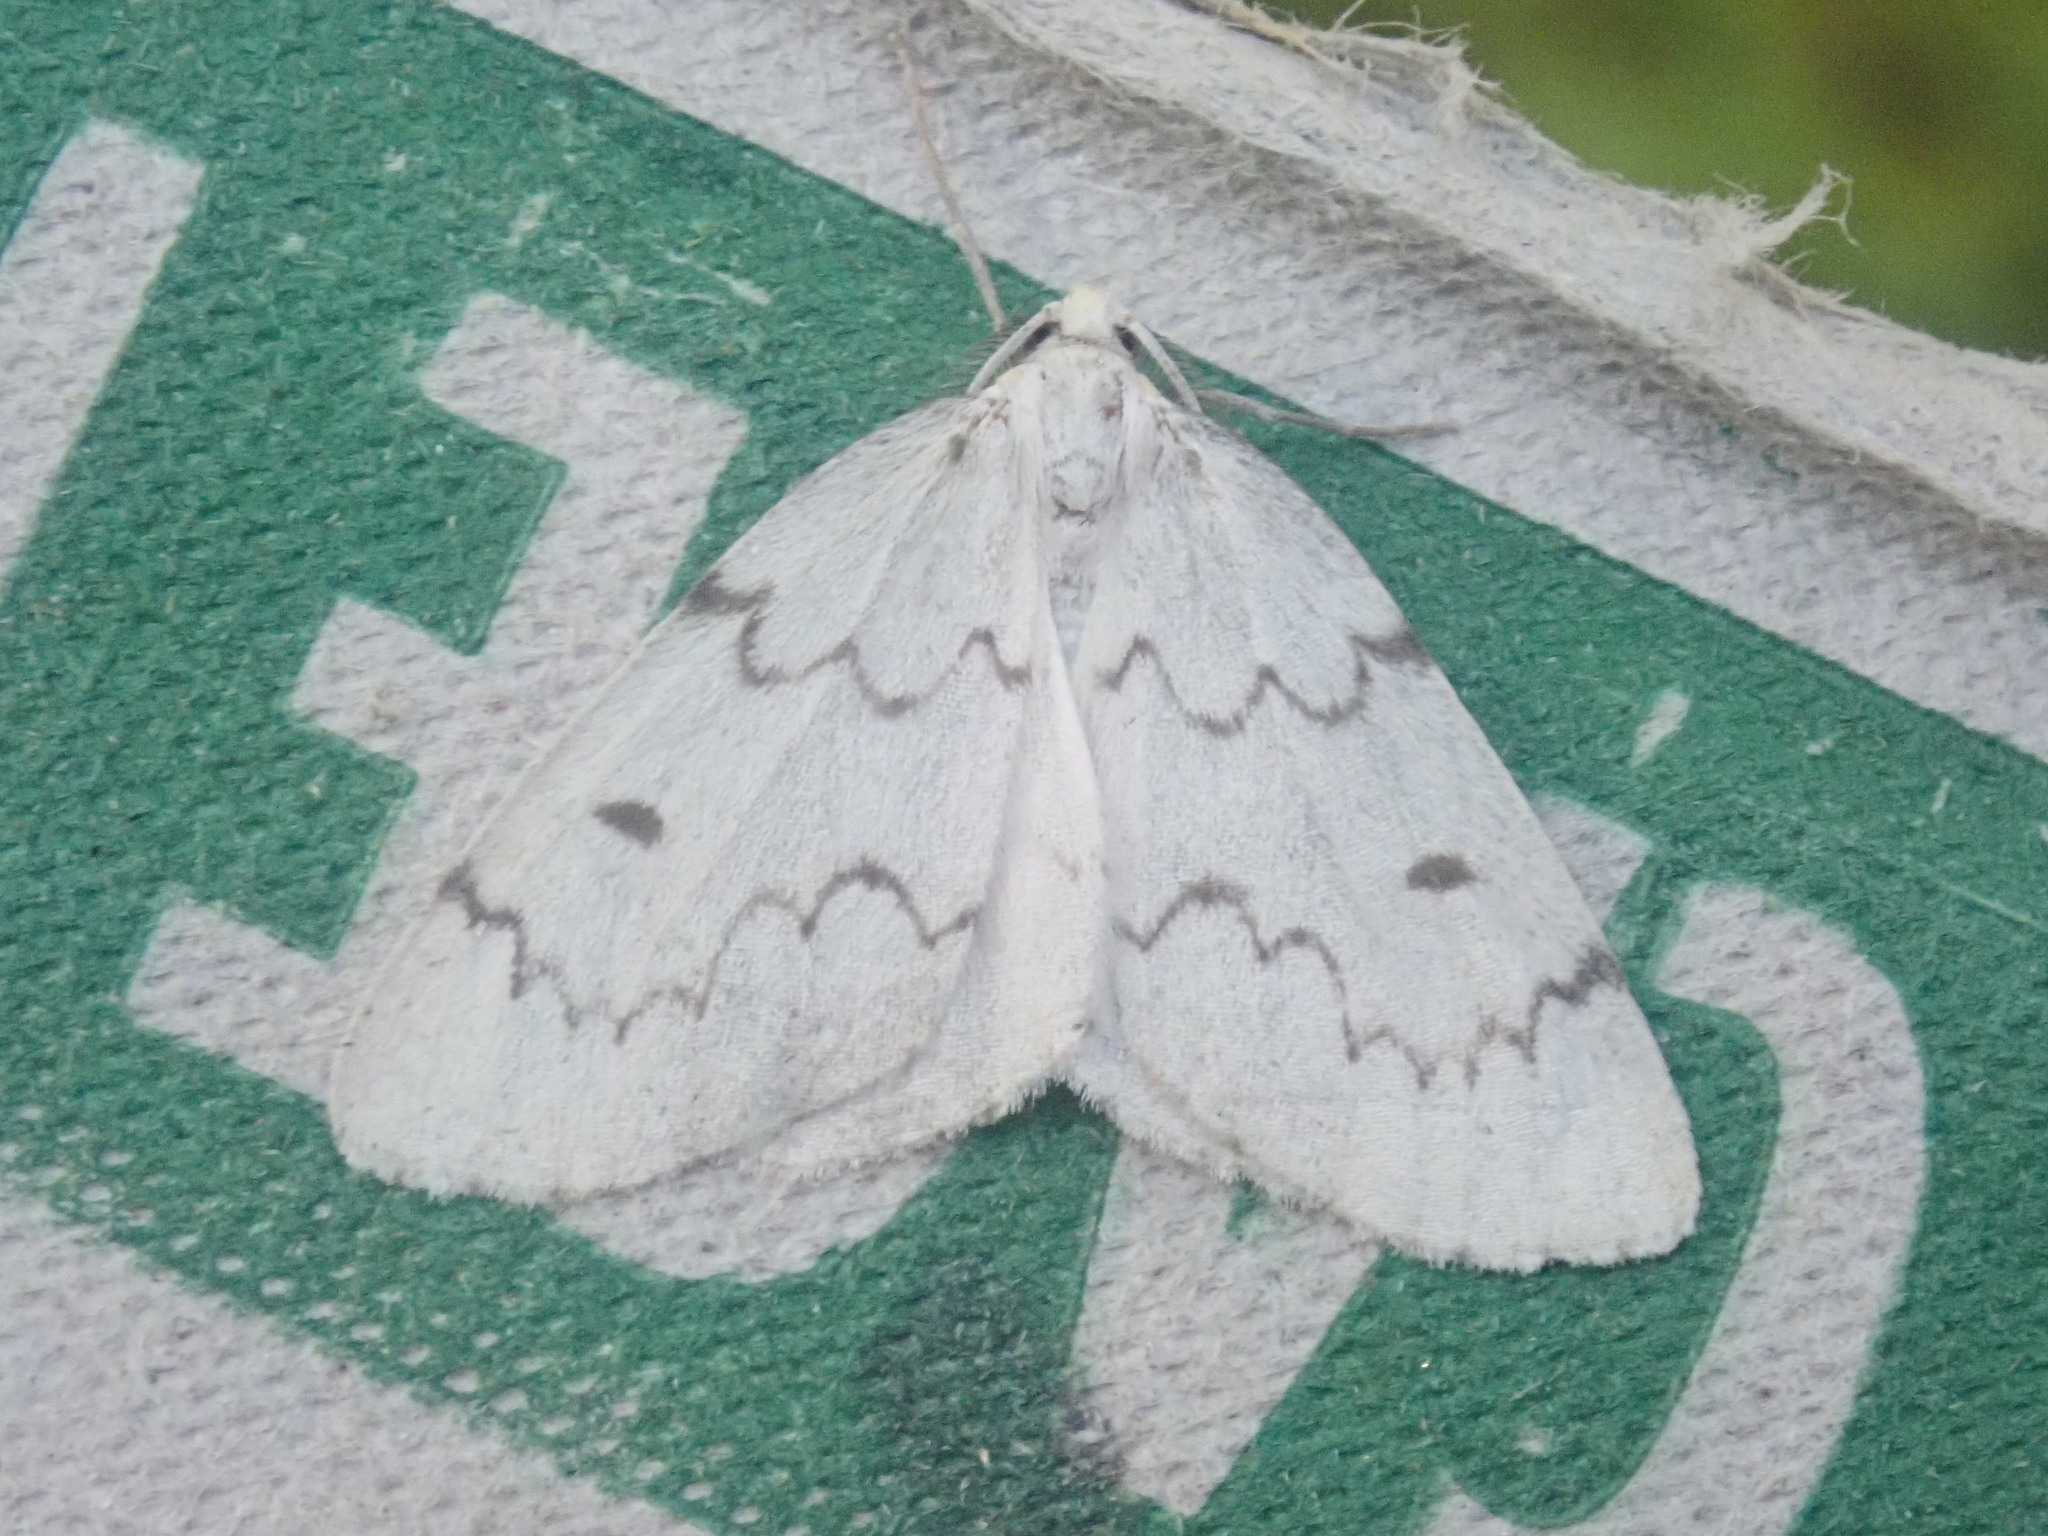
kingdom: Animalia
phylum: Arthropoda
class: Insecta
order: Lepidoptera
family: Geometridae
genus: Nepytia
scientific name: Nepytia canosaria
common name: False hemlock looper
